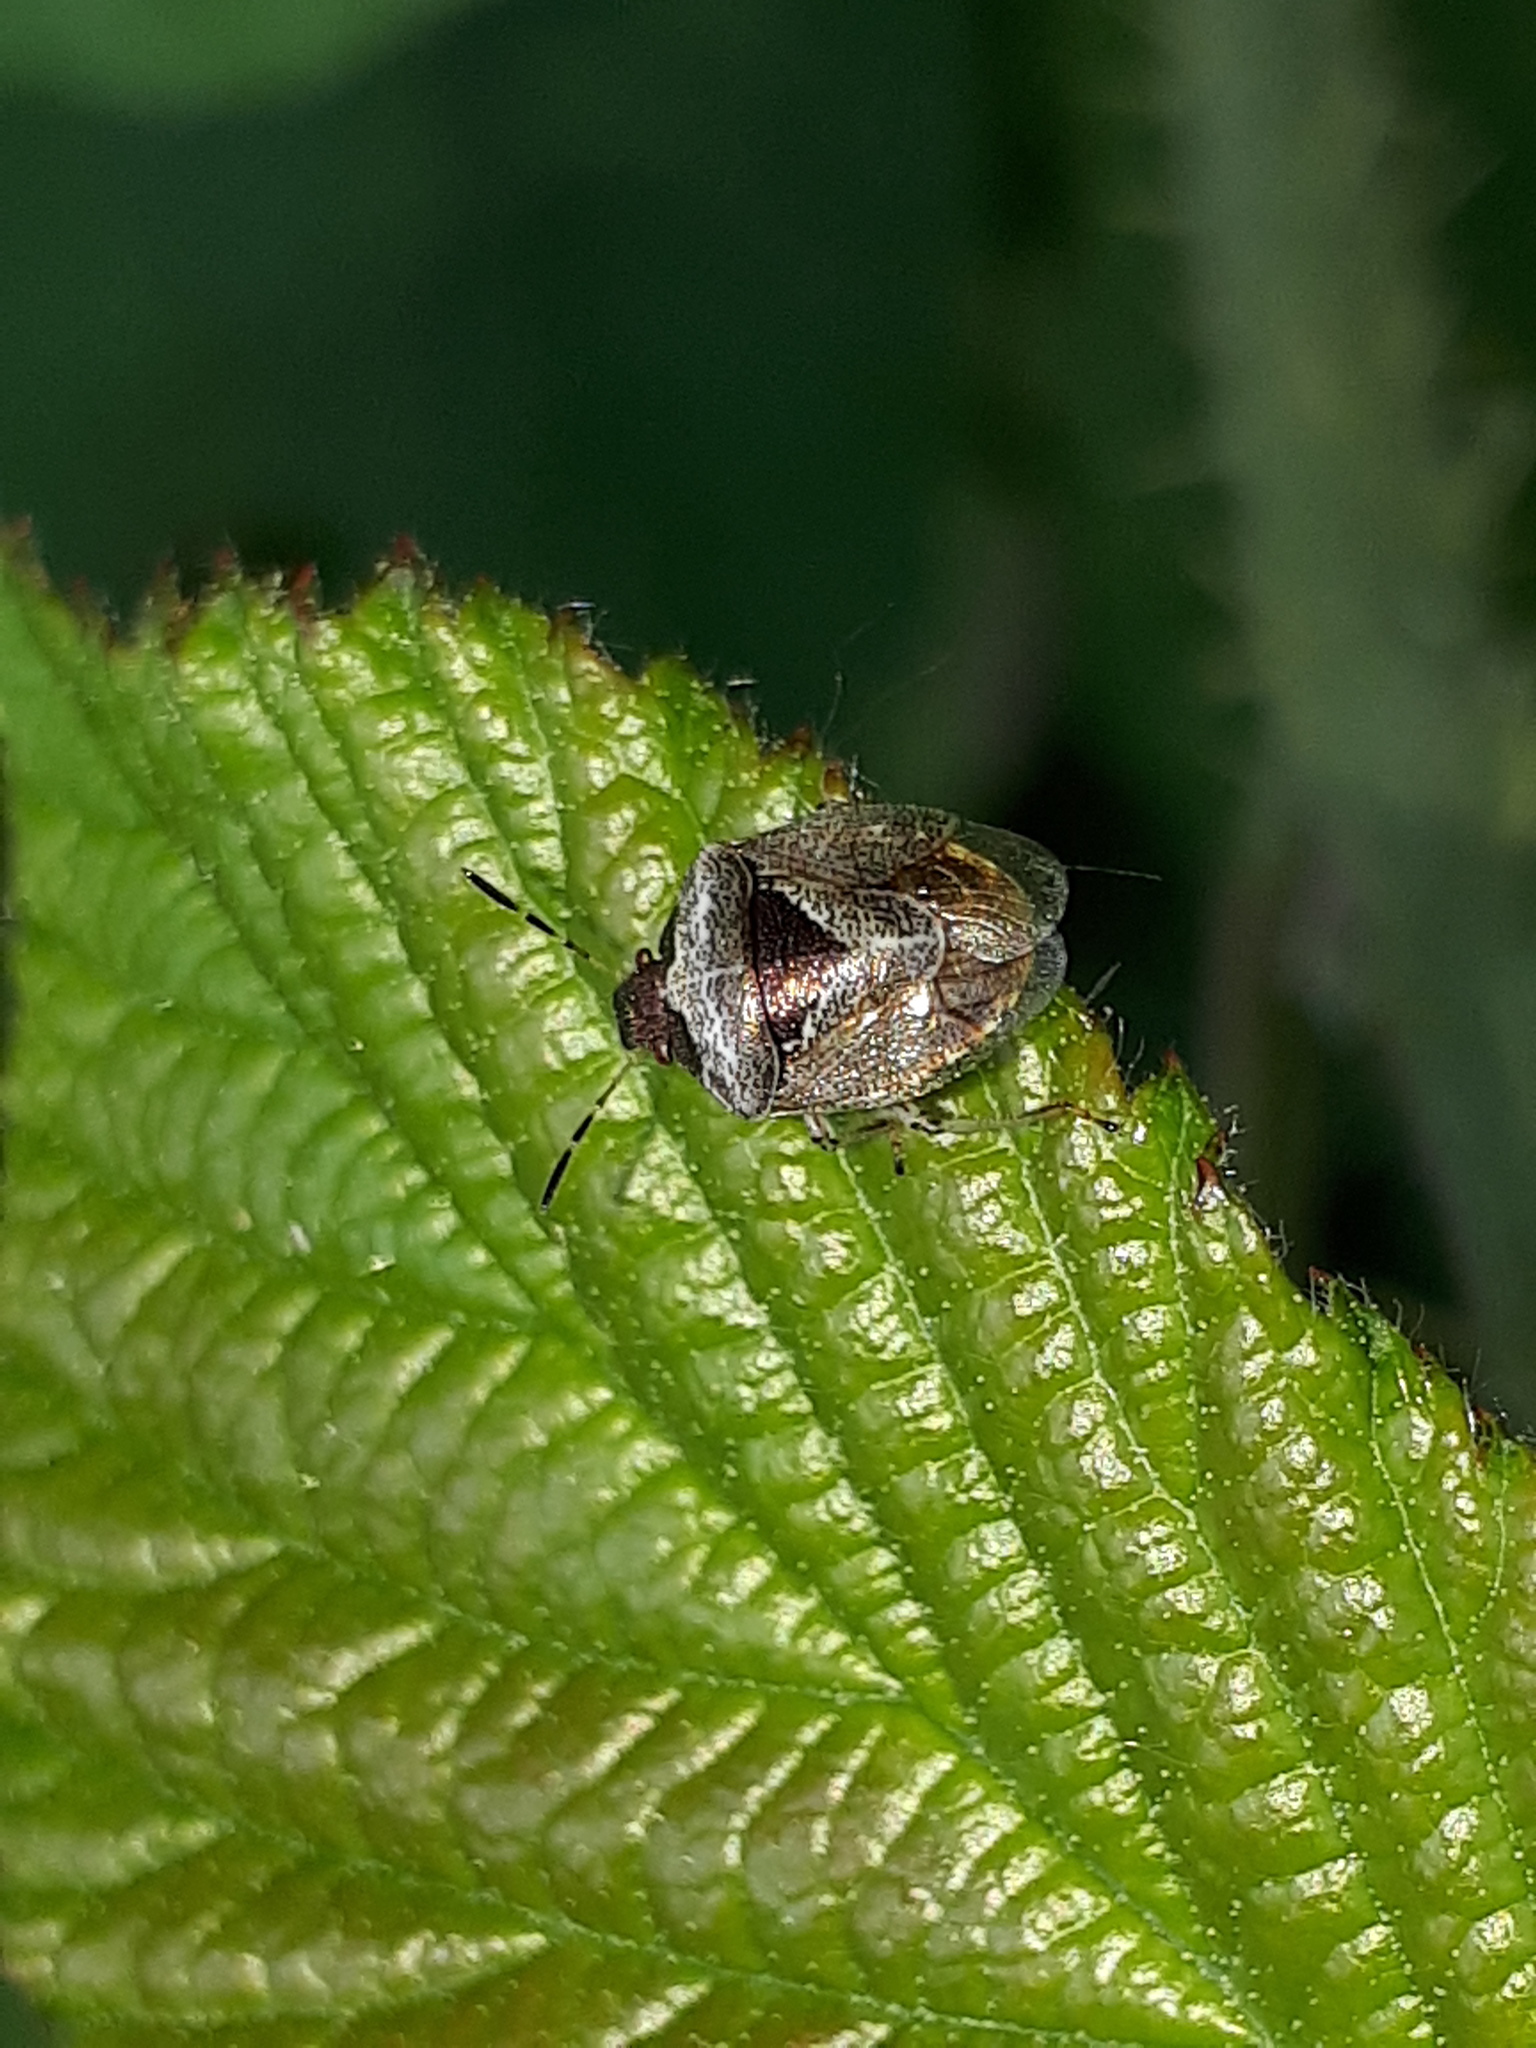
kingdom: Animalia
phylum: Arthropoda
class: Insecta
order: Hemiptera
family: Pentatomidae
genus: Eysarcoris
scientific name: Eysarcoris venustissimus
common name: Woundwort shieldbug
